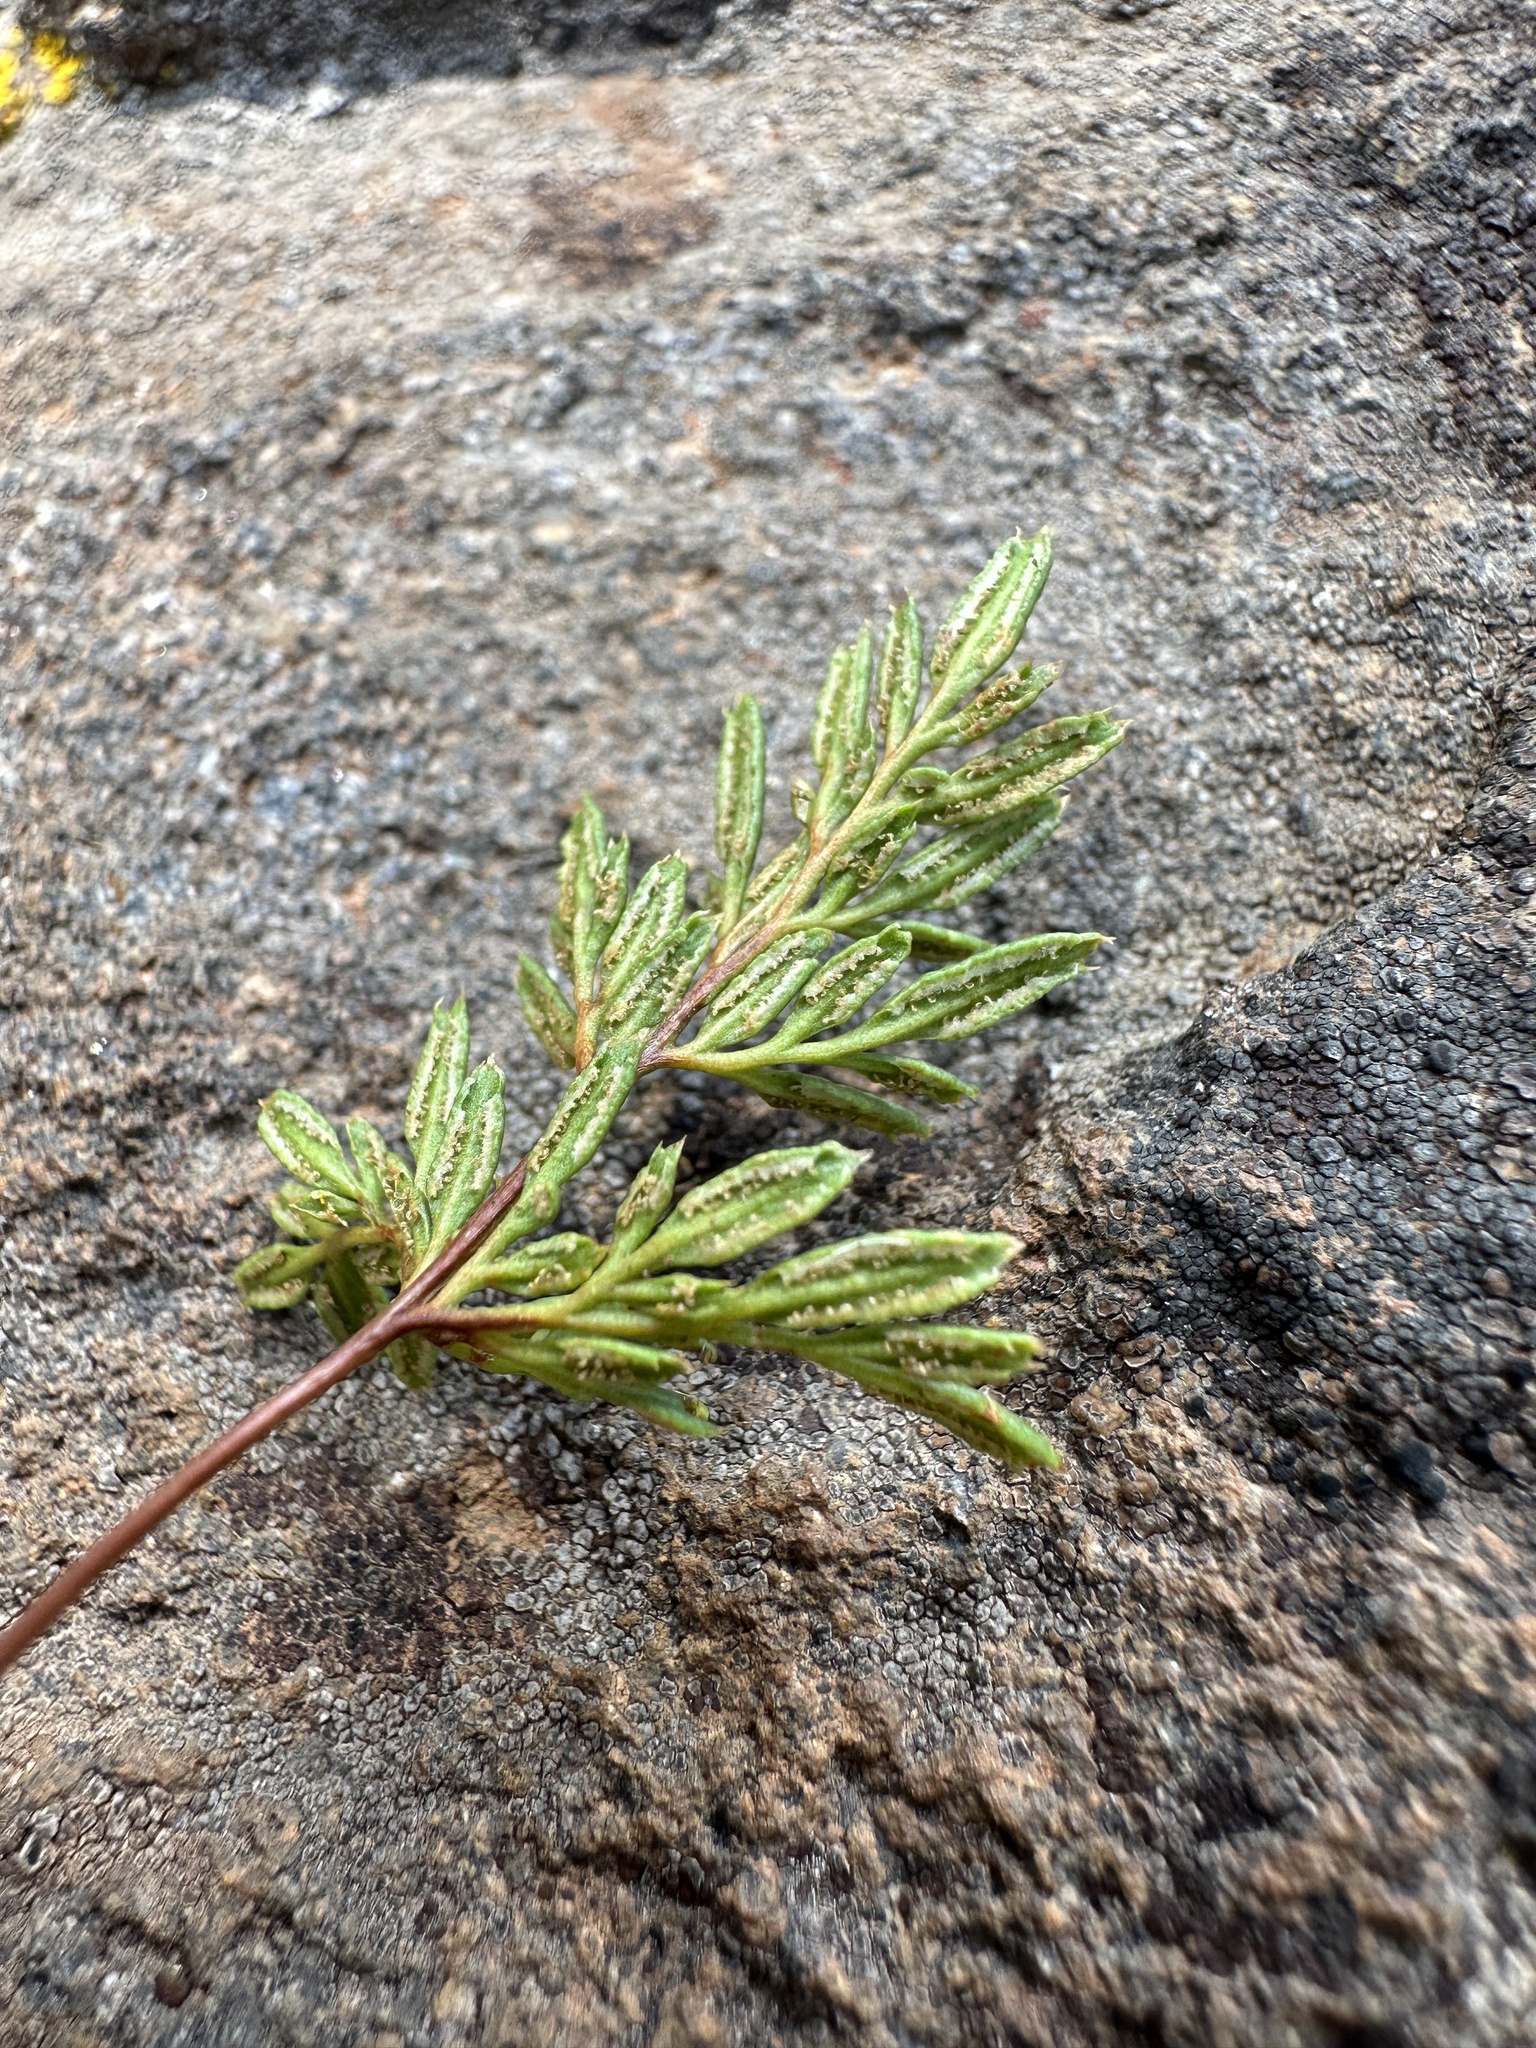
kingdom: Plantae
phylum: Tracheophyta
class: Polypodiopsida
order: Polypodiales
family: Pteridaceae
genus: Aspidotis
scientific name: Aspidotis densa
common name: Indian's dream
